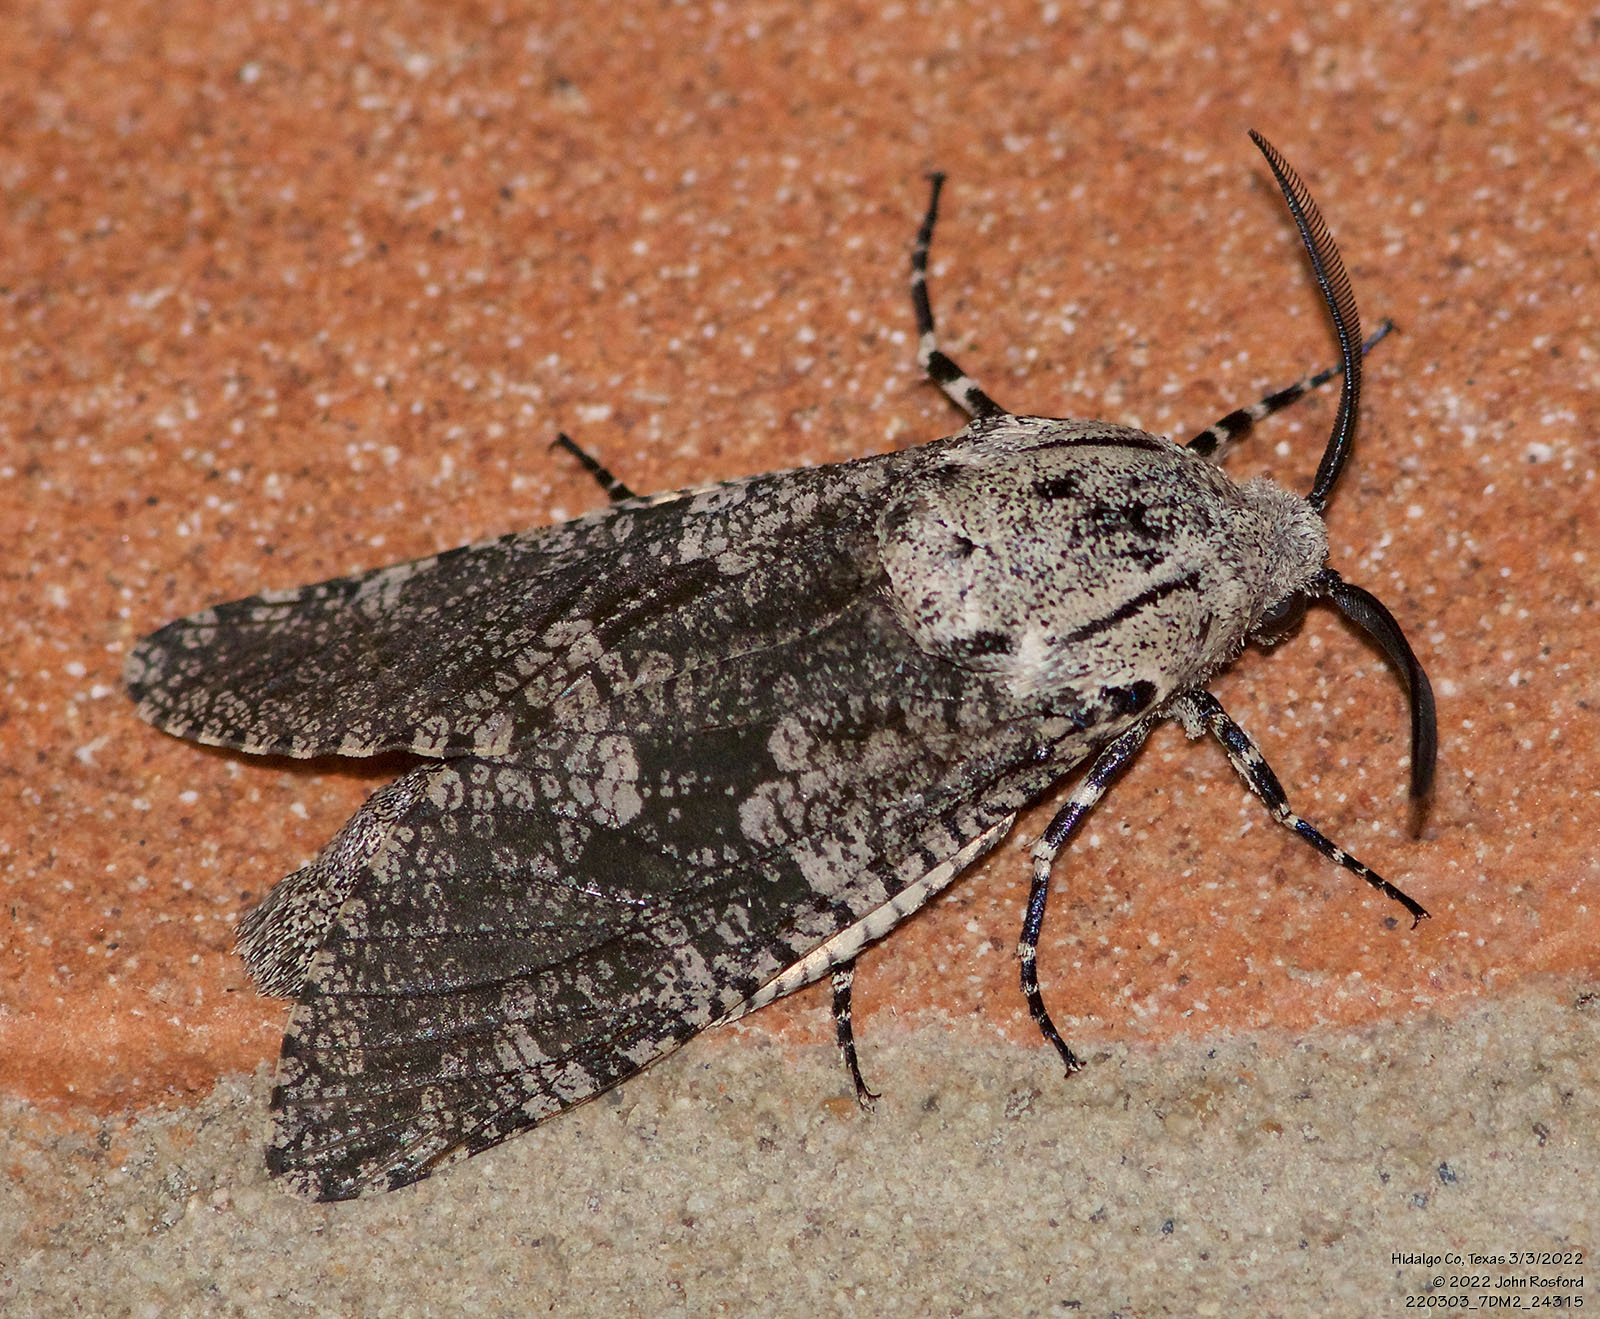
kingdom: Animalia
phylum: Arthropoda
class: Insecta
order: Lepidoptera
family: Cossidae
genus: Prionoxystus
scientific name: Prionoxystus robiniae
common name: Carpenterworm
